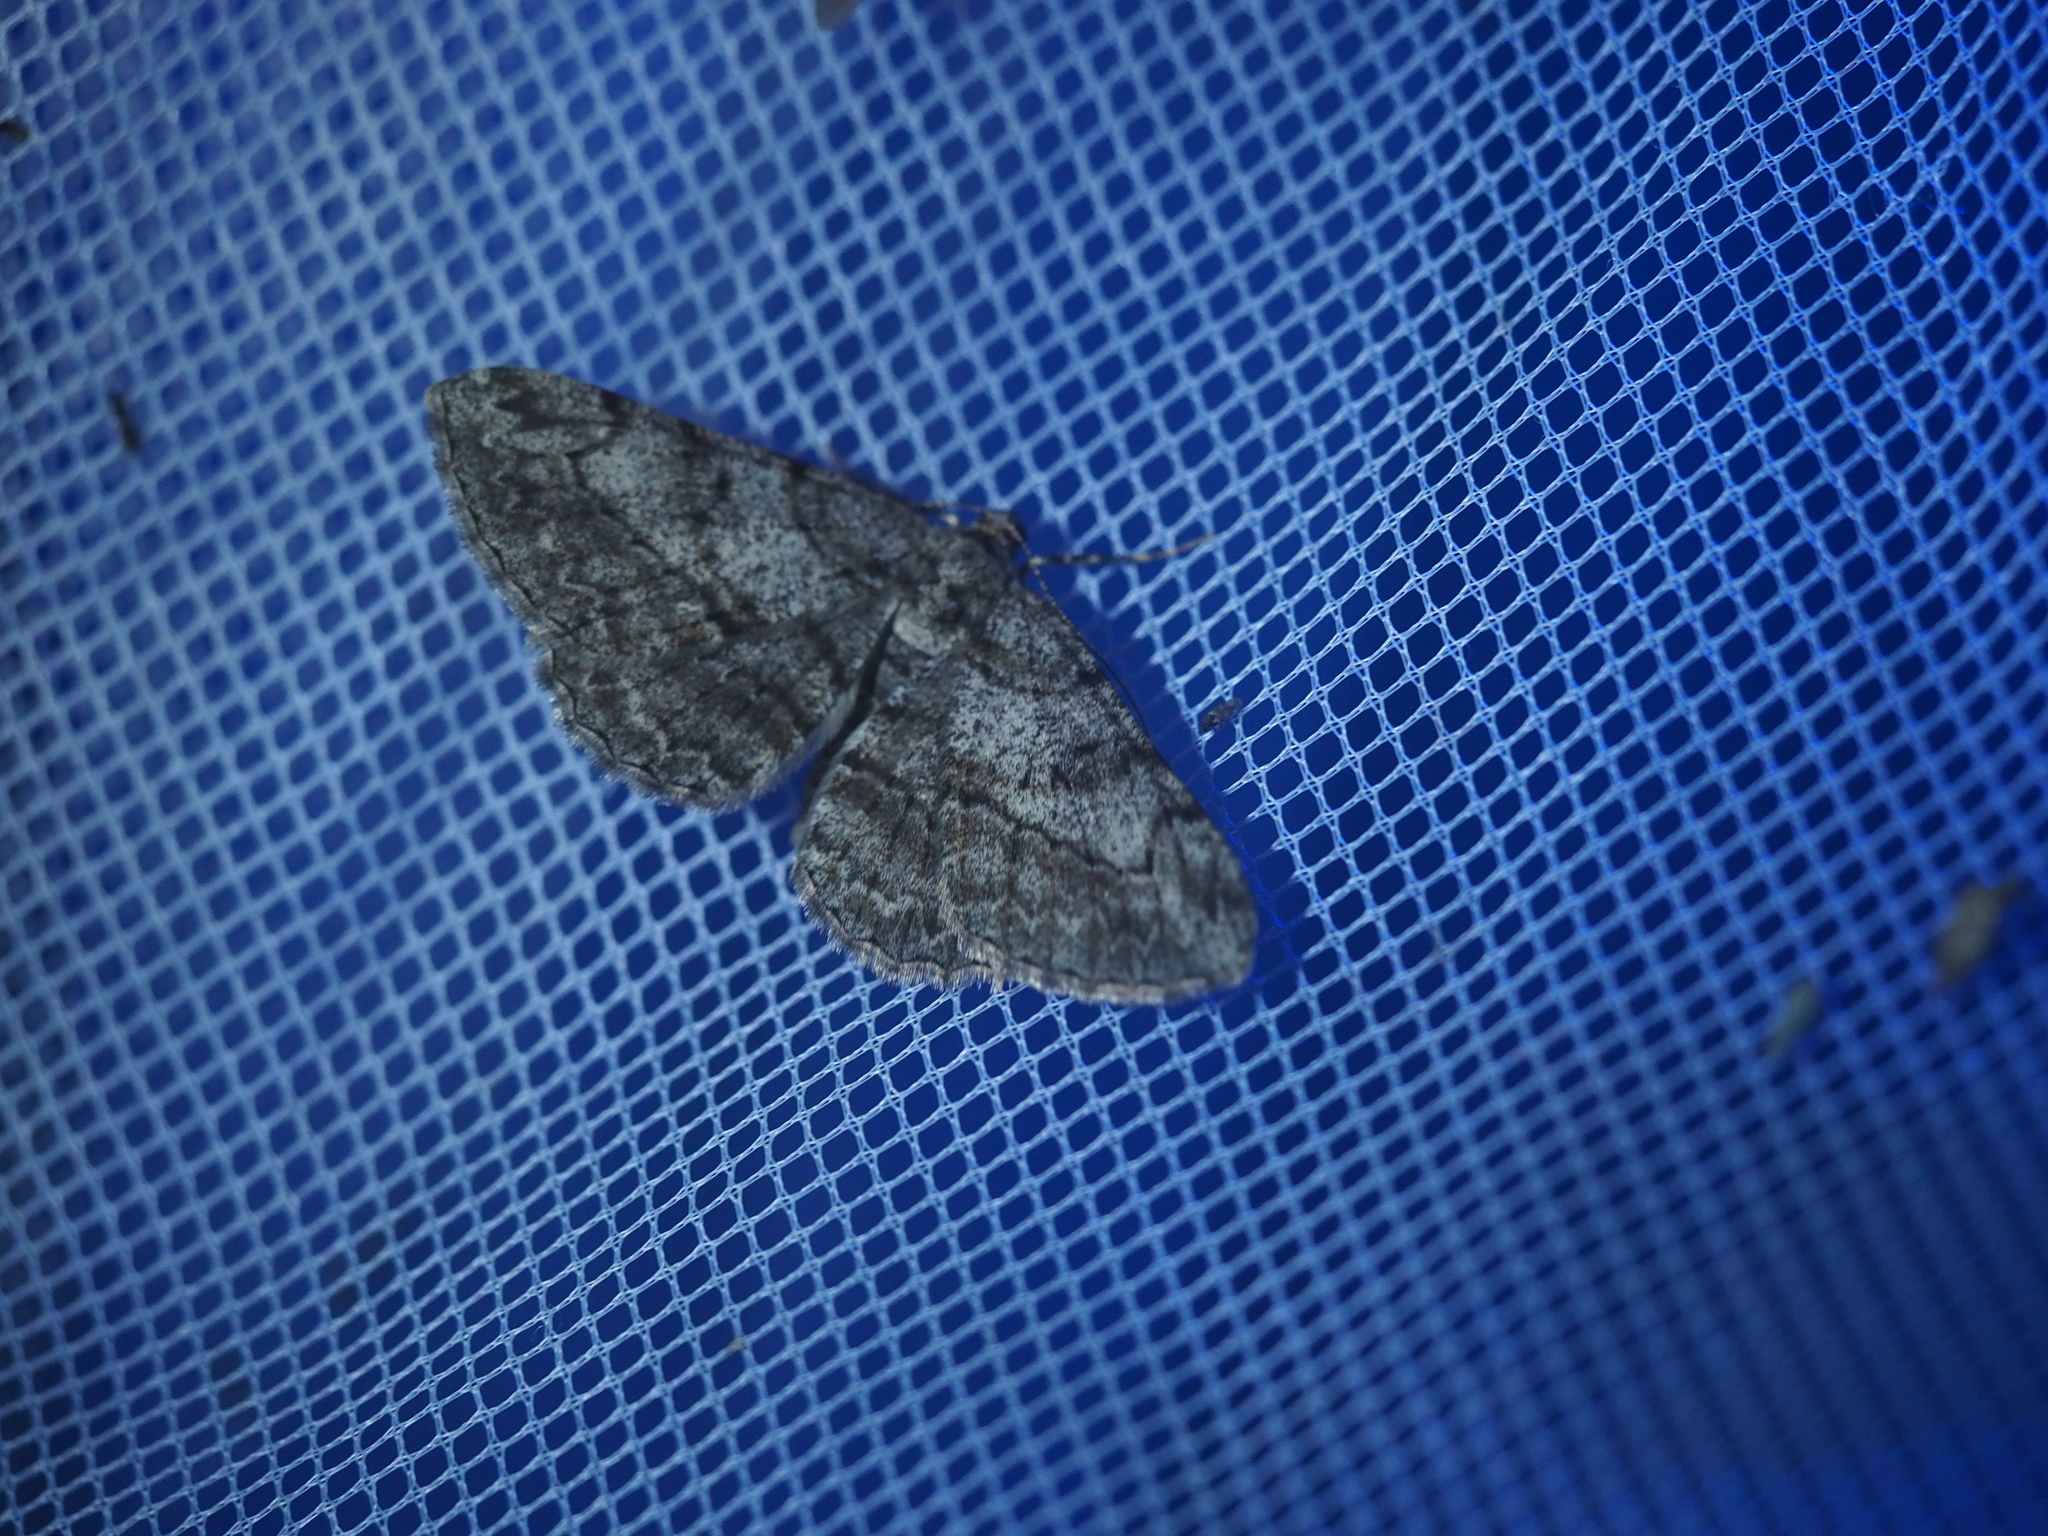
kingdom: Animalia
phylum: Arthropoda
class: Insecta
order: Lepidoptera
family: Geometridae
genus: Cleora
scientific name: Cleora cinctaria
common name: Ringed carpet
